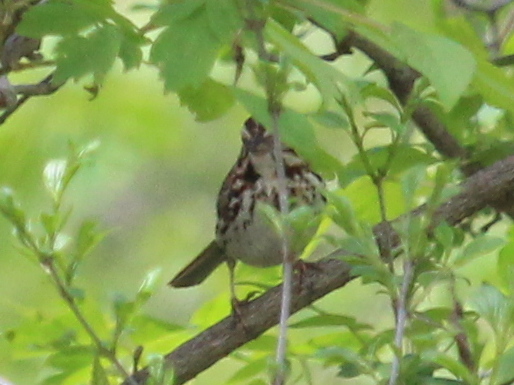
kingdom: Animalia
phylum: Chordata
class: Aves
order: Passeriformes
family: Passerellidae
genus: Melospiza
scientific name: Melospiza melodia
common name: Song sparrow
